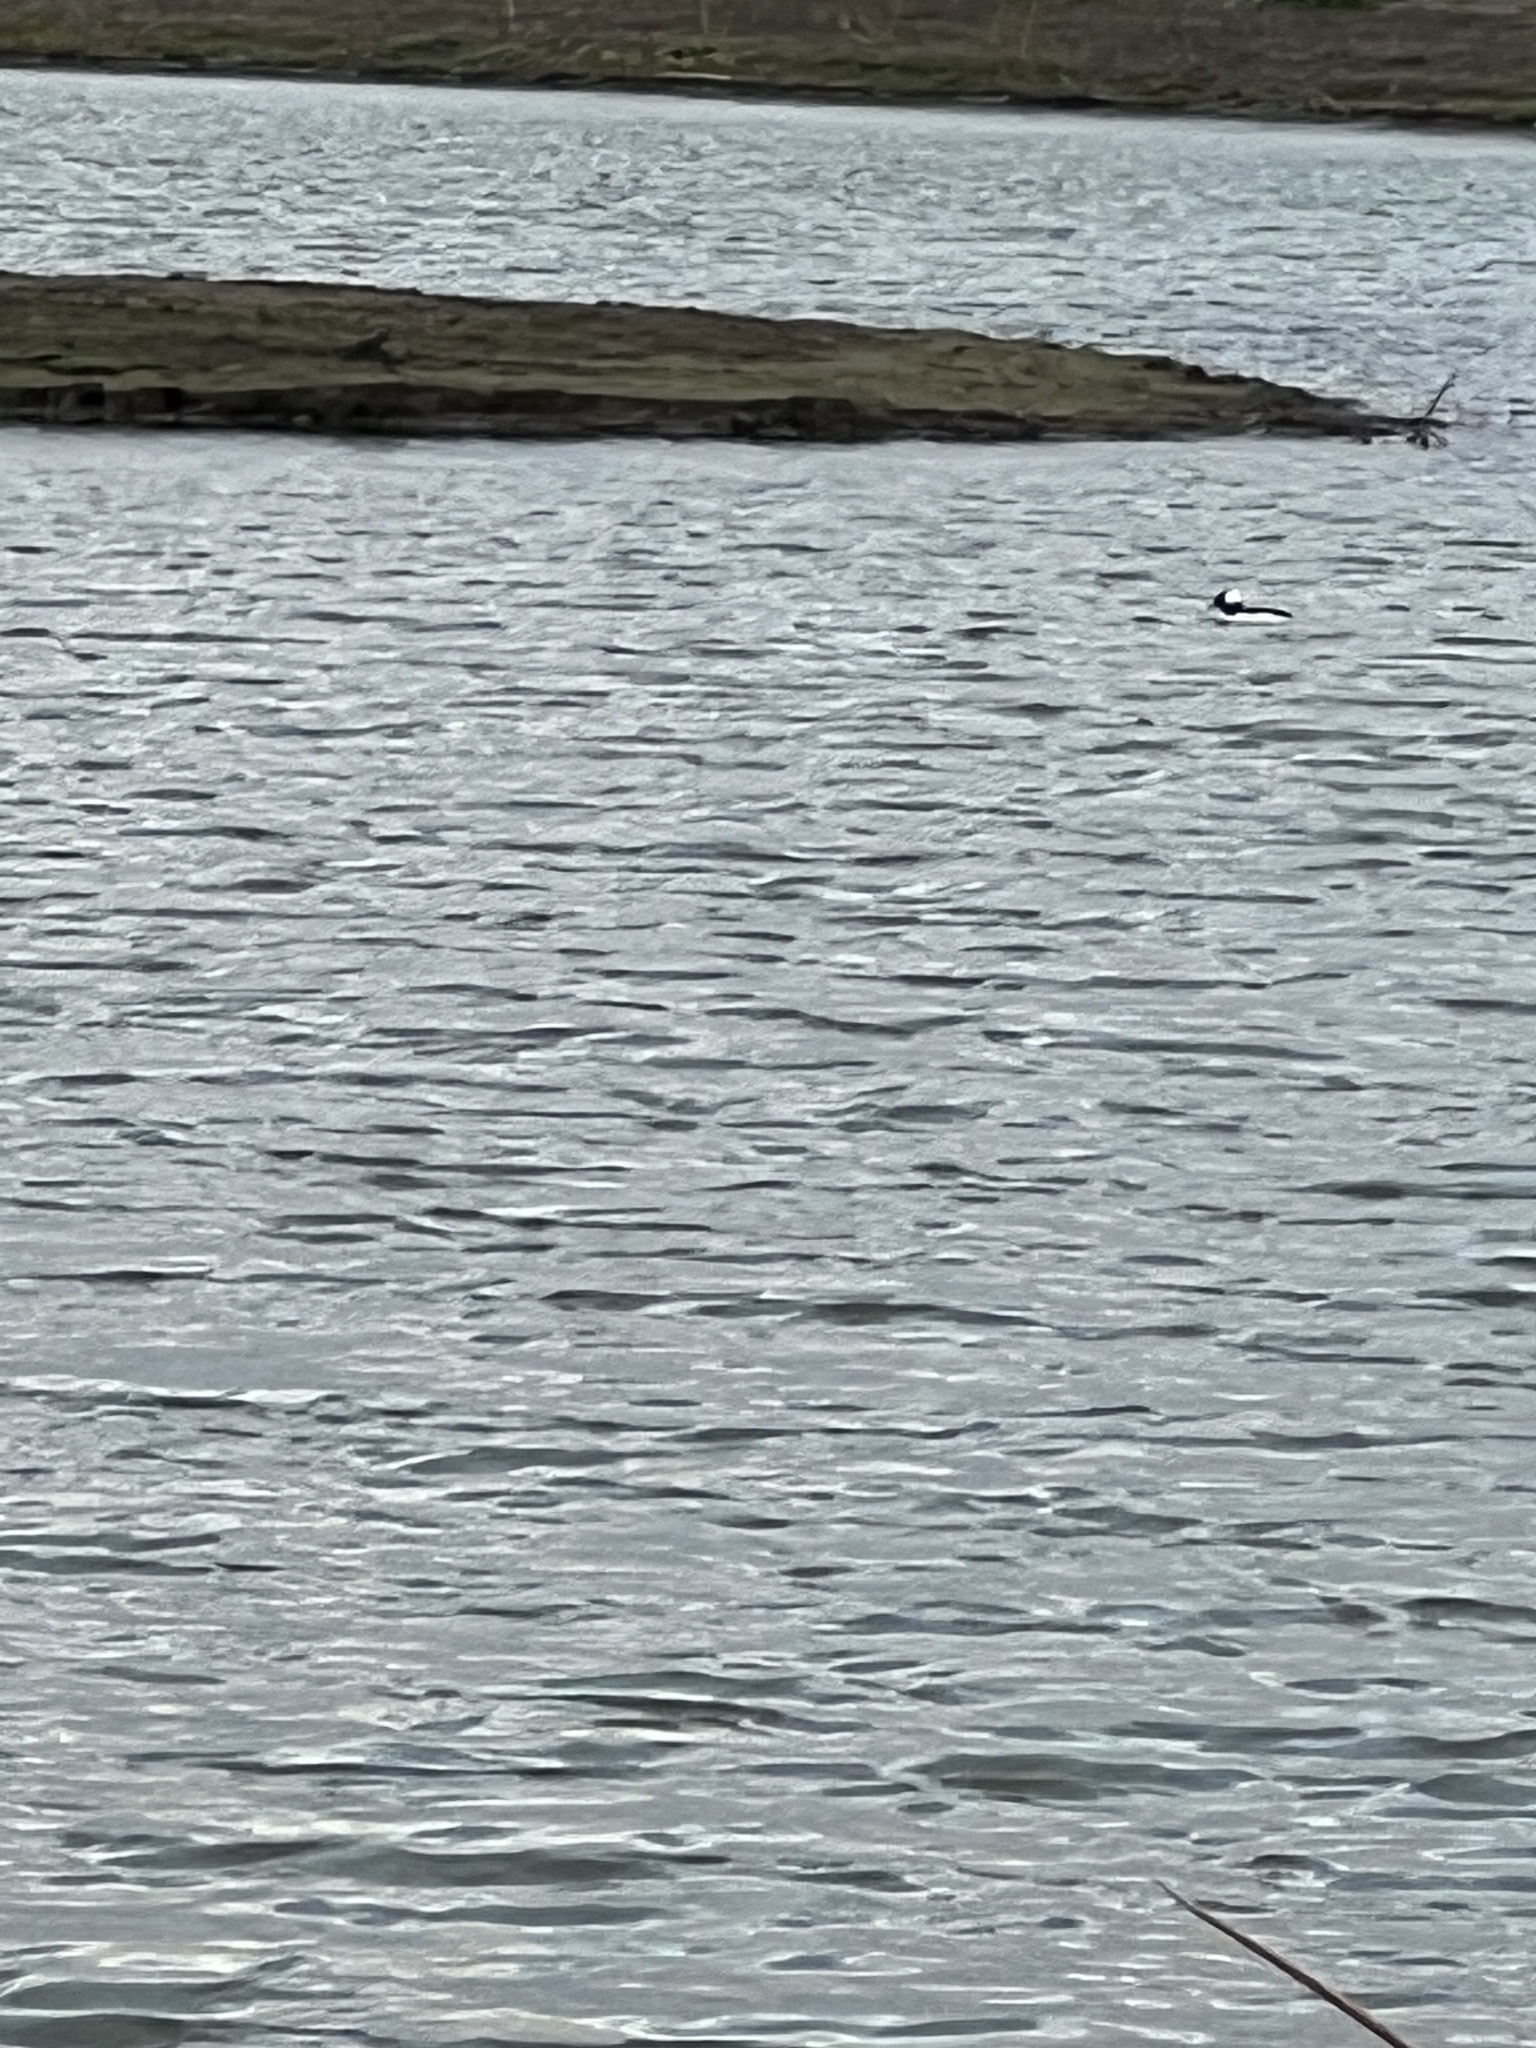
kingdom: Animalia
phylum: Chordata
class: Aves
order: Anseriformes
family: Anatidae
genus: Bucephala
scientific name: Bucephala albeola
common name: Bufflehead
